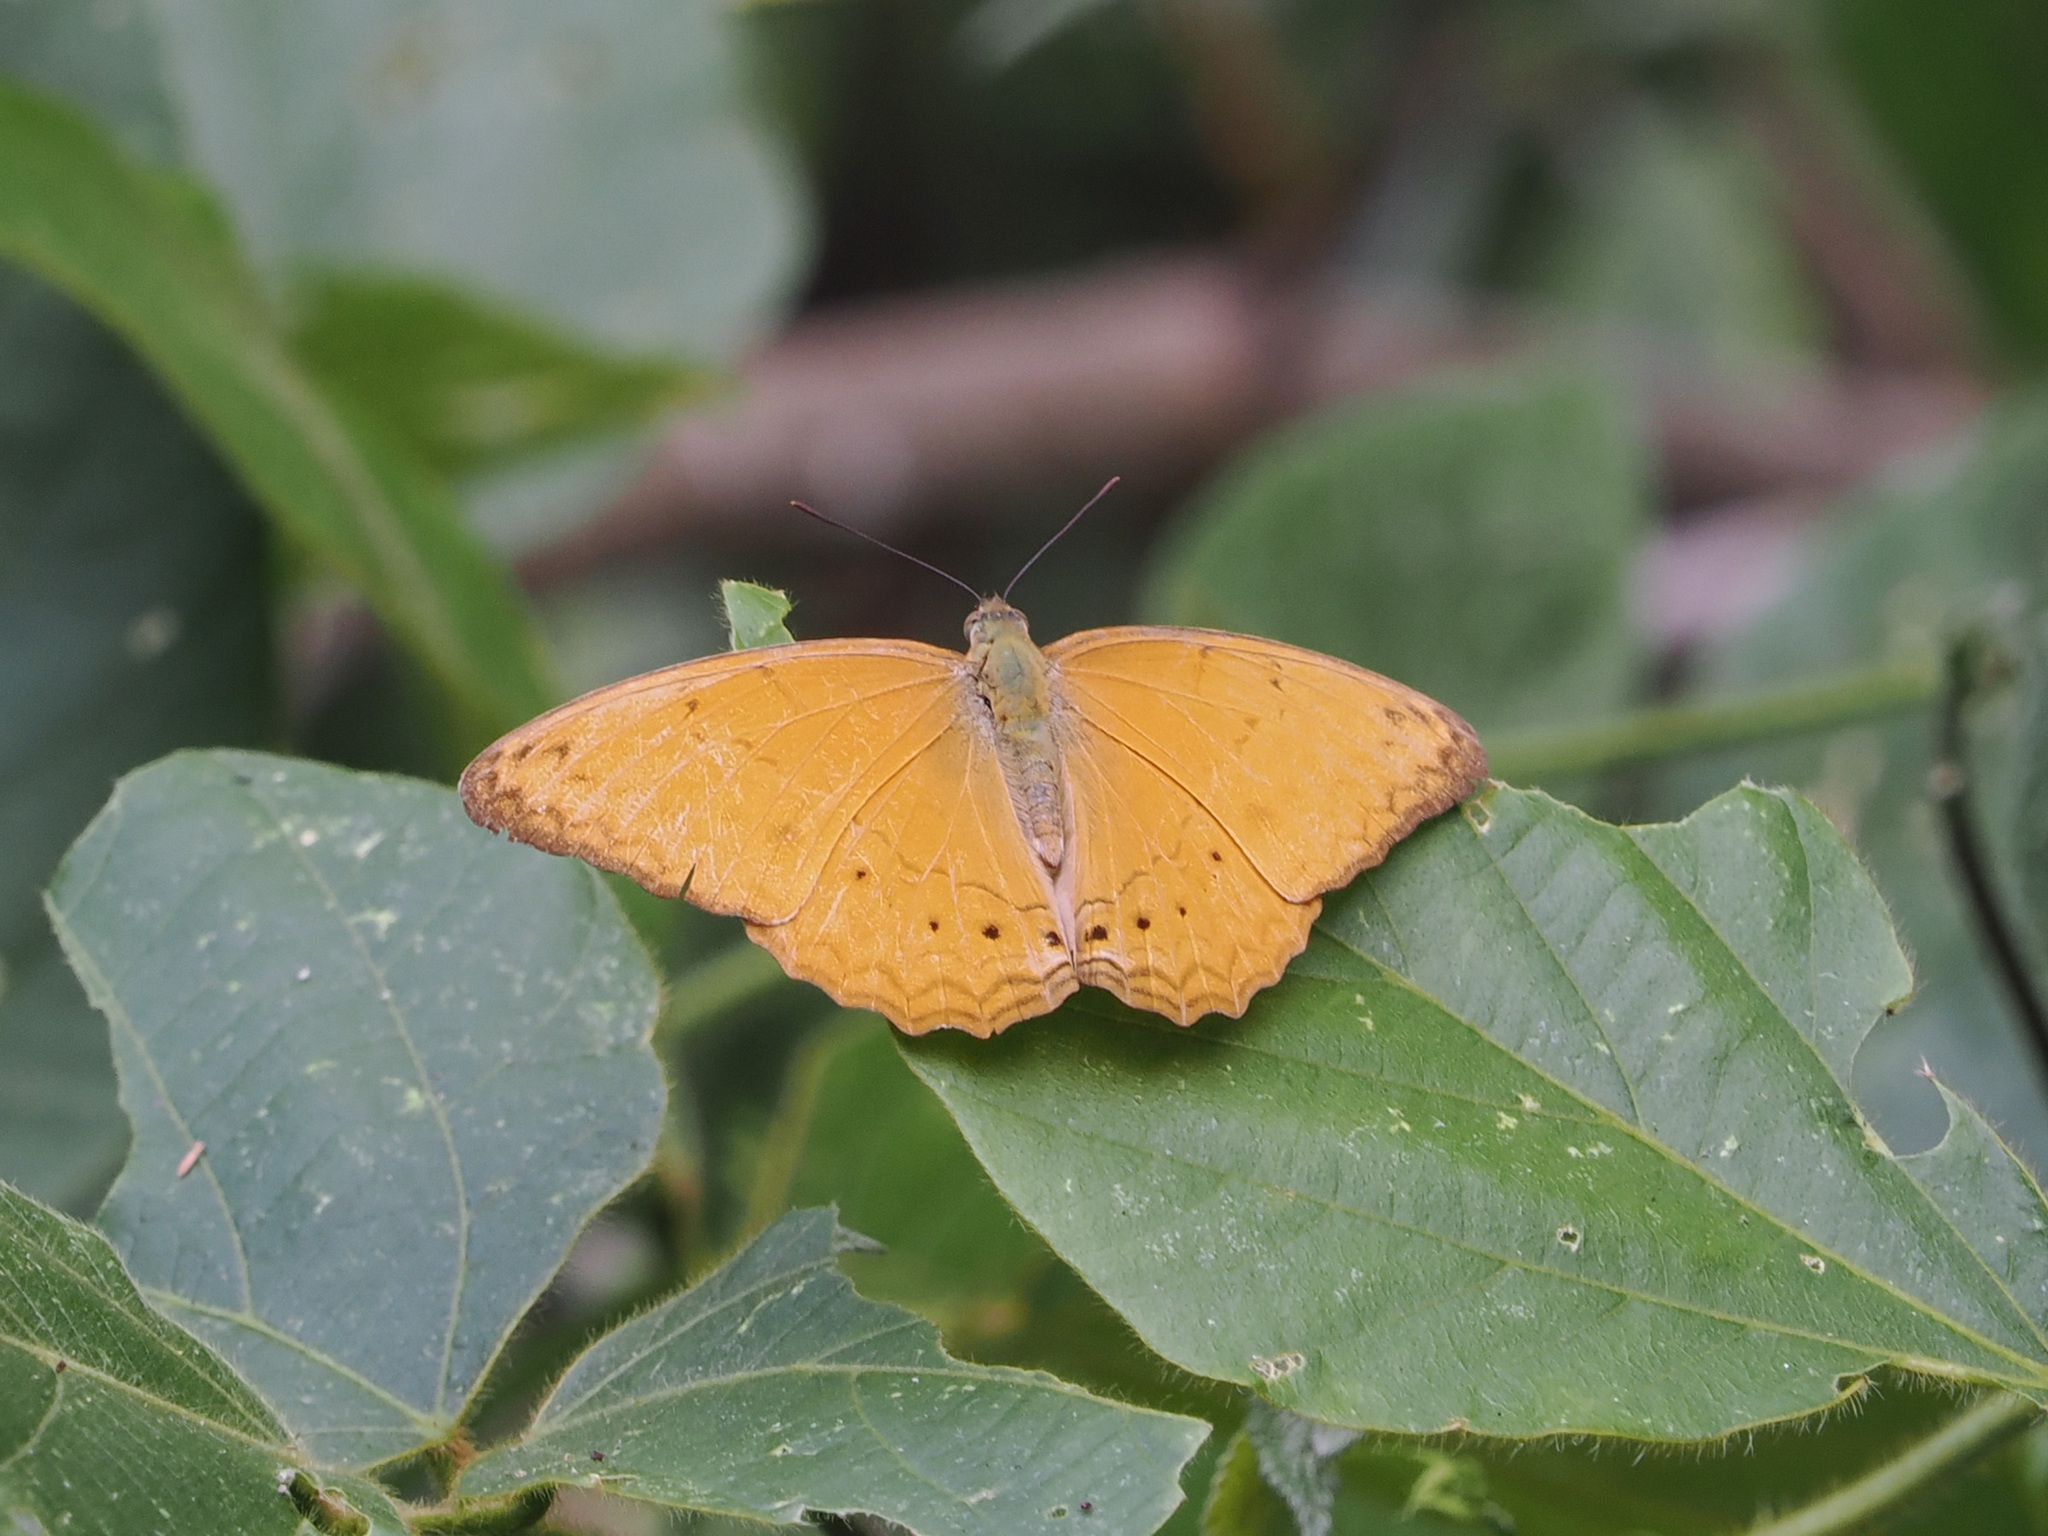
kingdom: Animalia
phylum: Arthropoda
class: Insecta
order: Lepidoptera
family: Nymphalidae
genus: Cirrochroa
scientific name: Cirrochroa tyche
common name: Common yeoman
